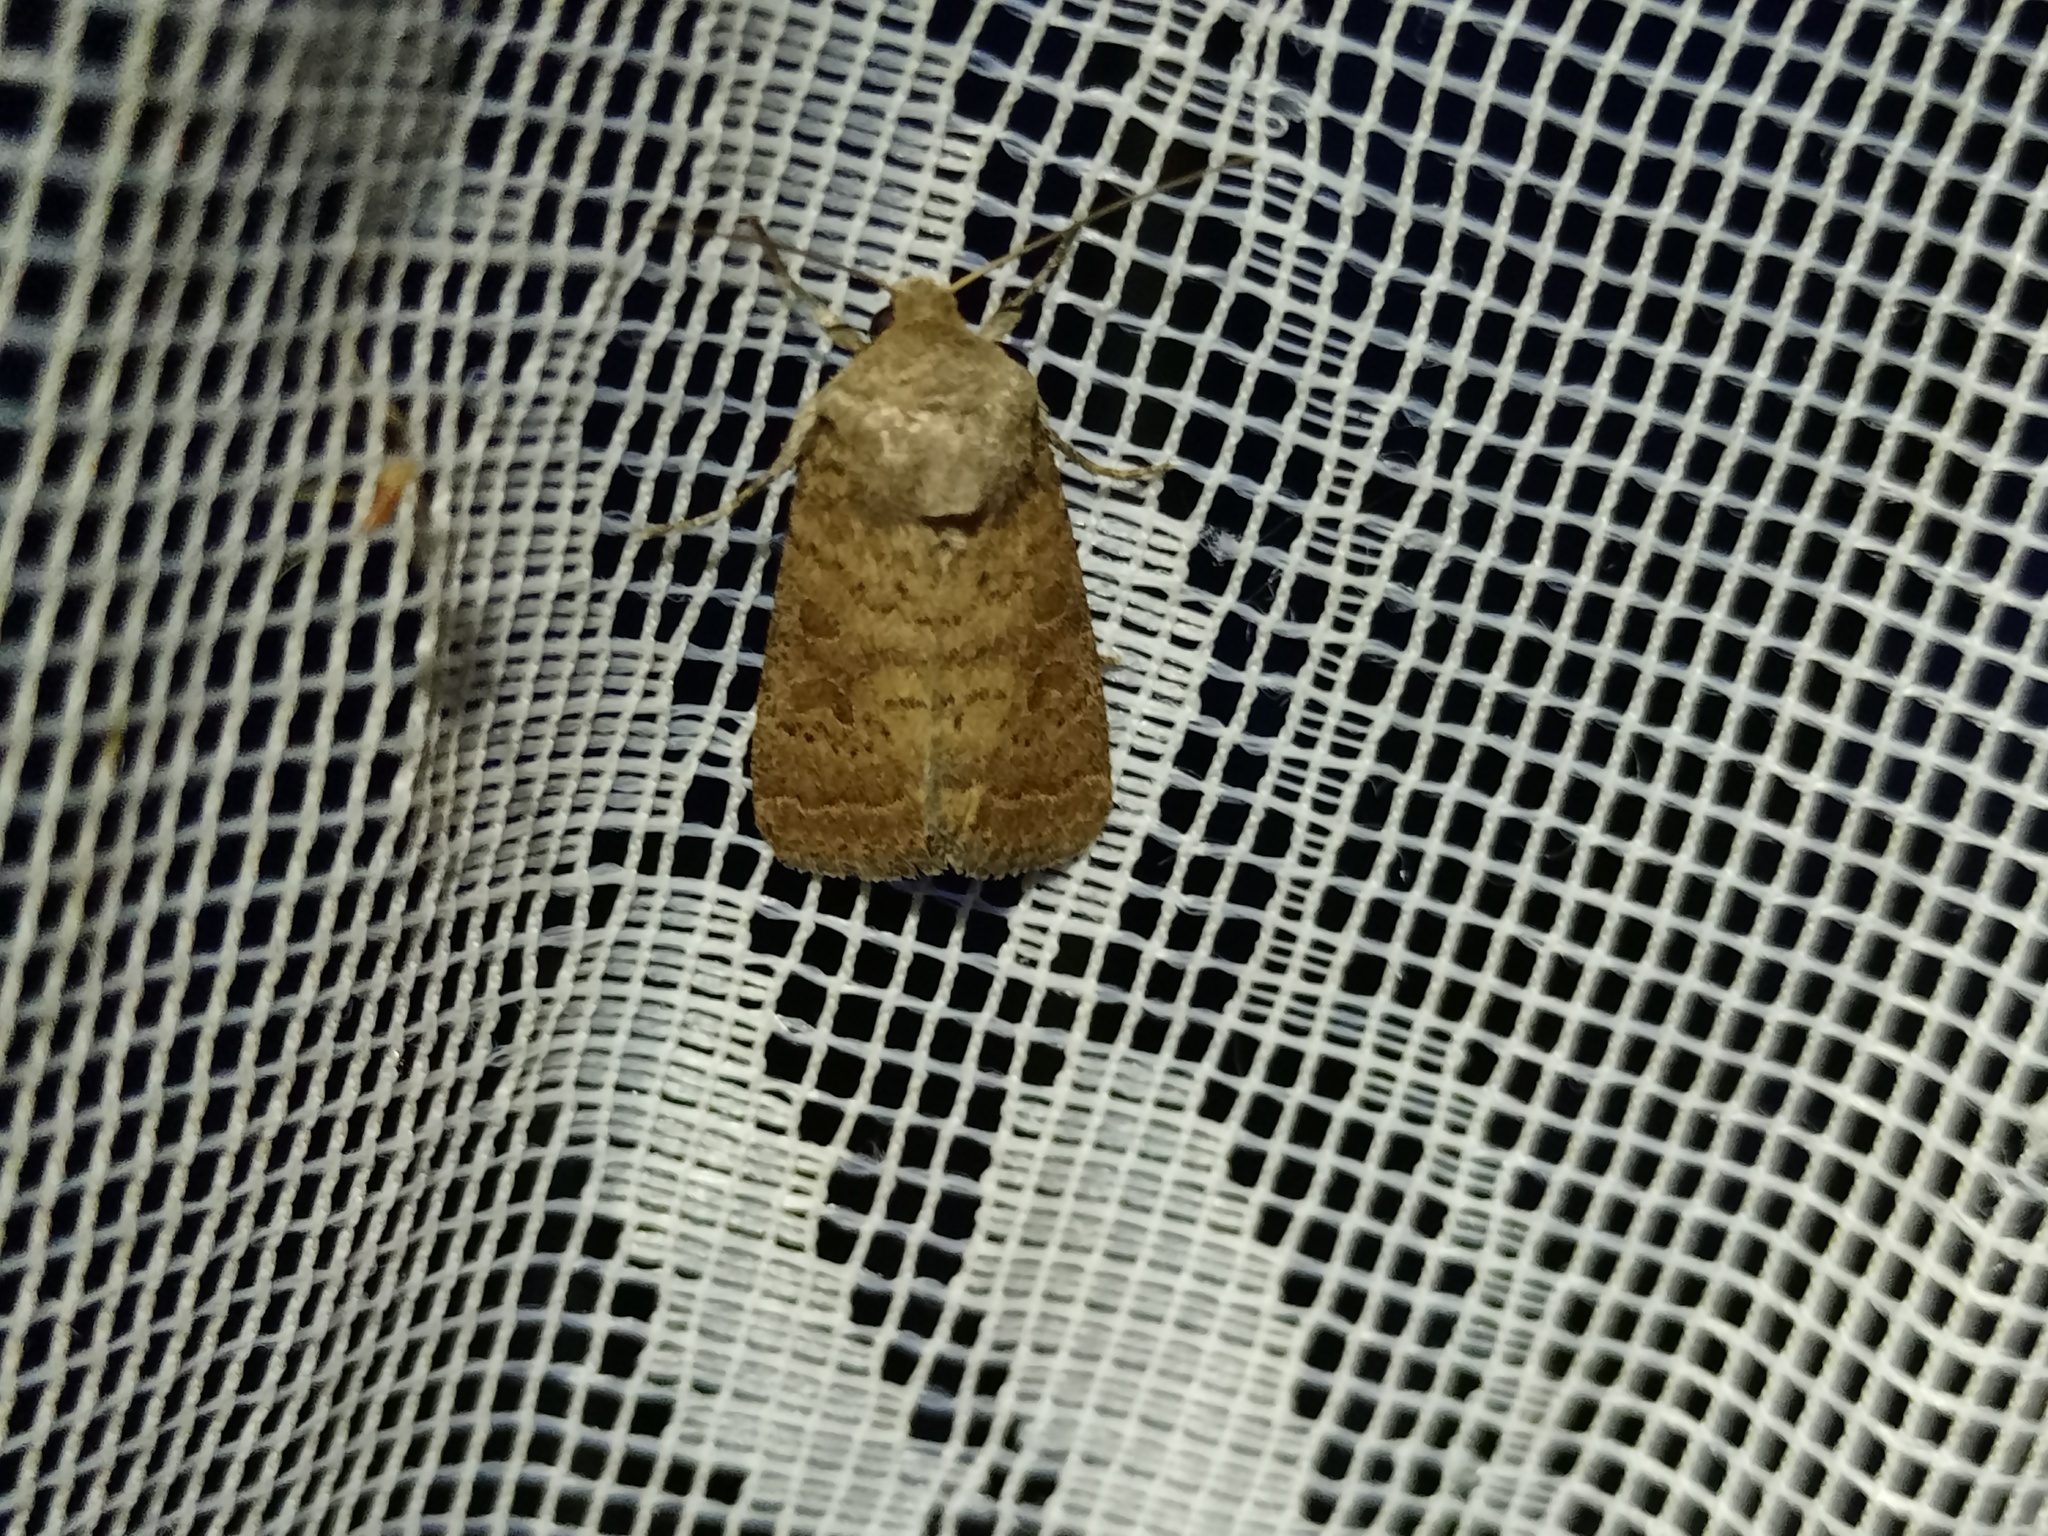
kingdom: Animalia
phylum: Arthropoda
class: Insecta
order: Lepidoptera
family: Noctuidae
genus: Hoplodrina
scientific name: Hoplodrina octogenaria
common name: Uncertain
